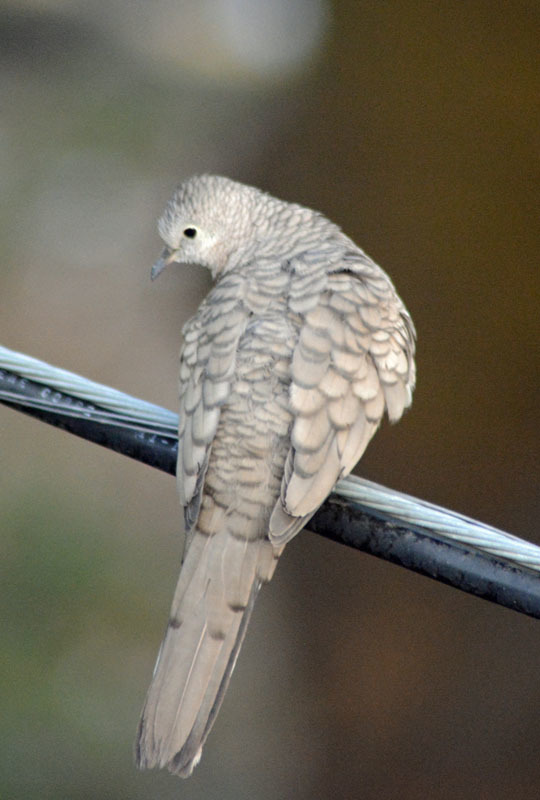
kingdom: Animalia
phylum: Chordata
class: Aves
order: Columbiformes
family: Columbidae
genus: Columbina
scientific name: Columbina inca
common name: Inca dove
